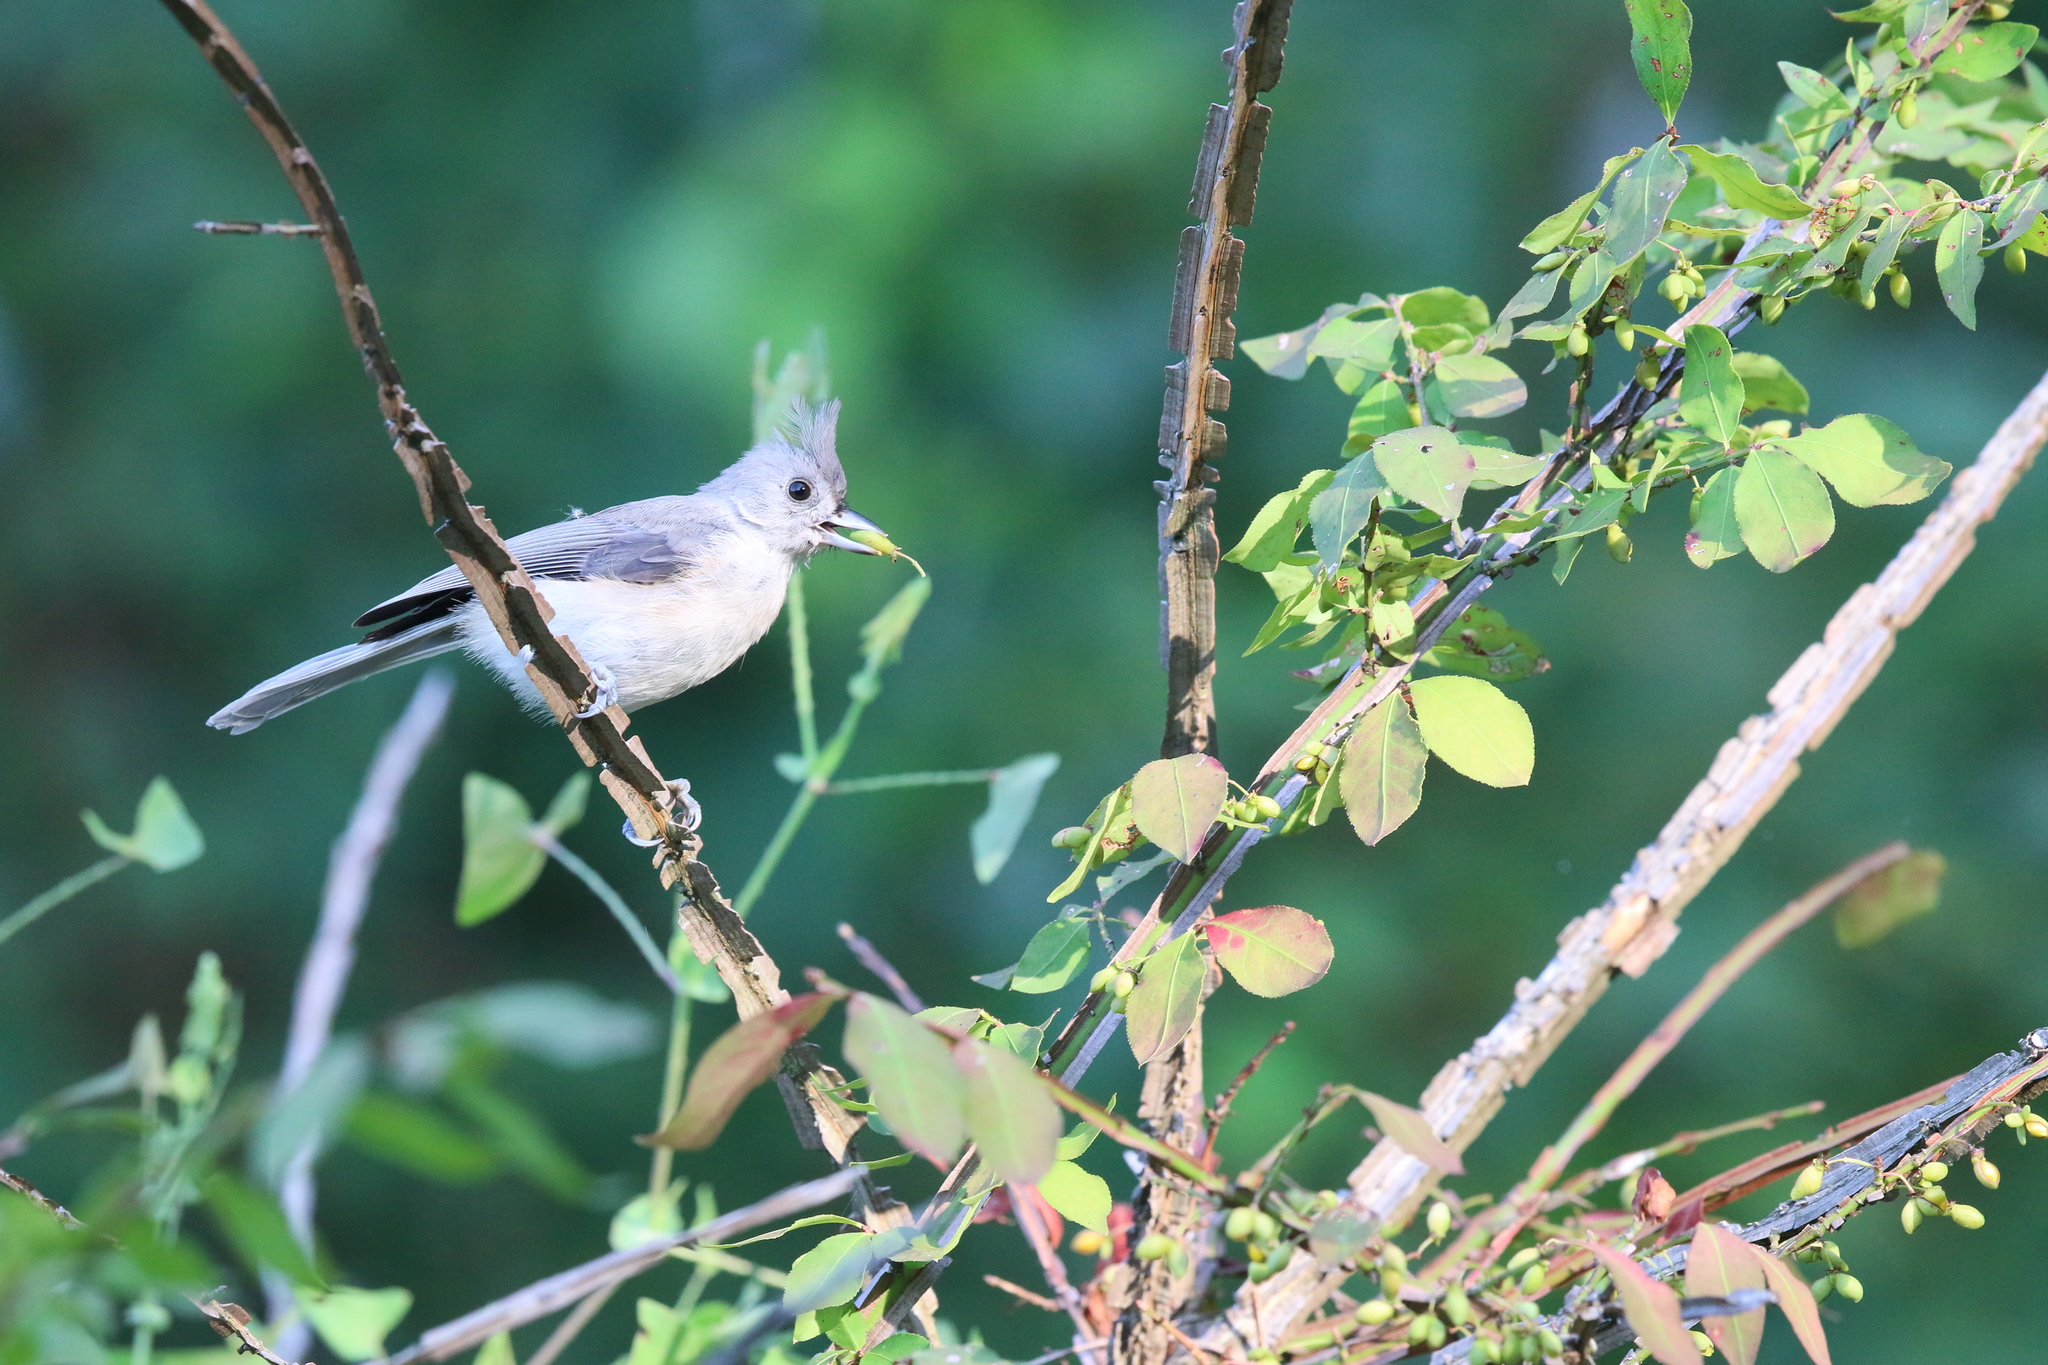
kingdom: Animalia
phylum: Chordata
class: Aves
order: Passeriformes
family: Paridae
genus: Baeolophus
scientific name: Baeolophus bicolor
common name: Tufted titmouse
